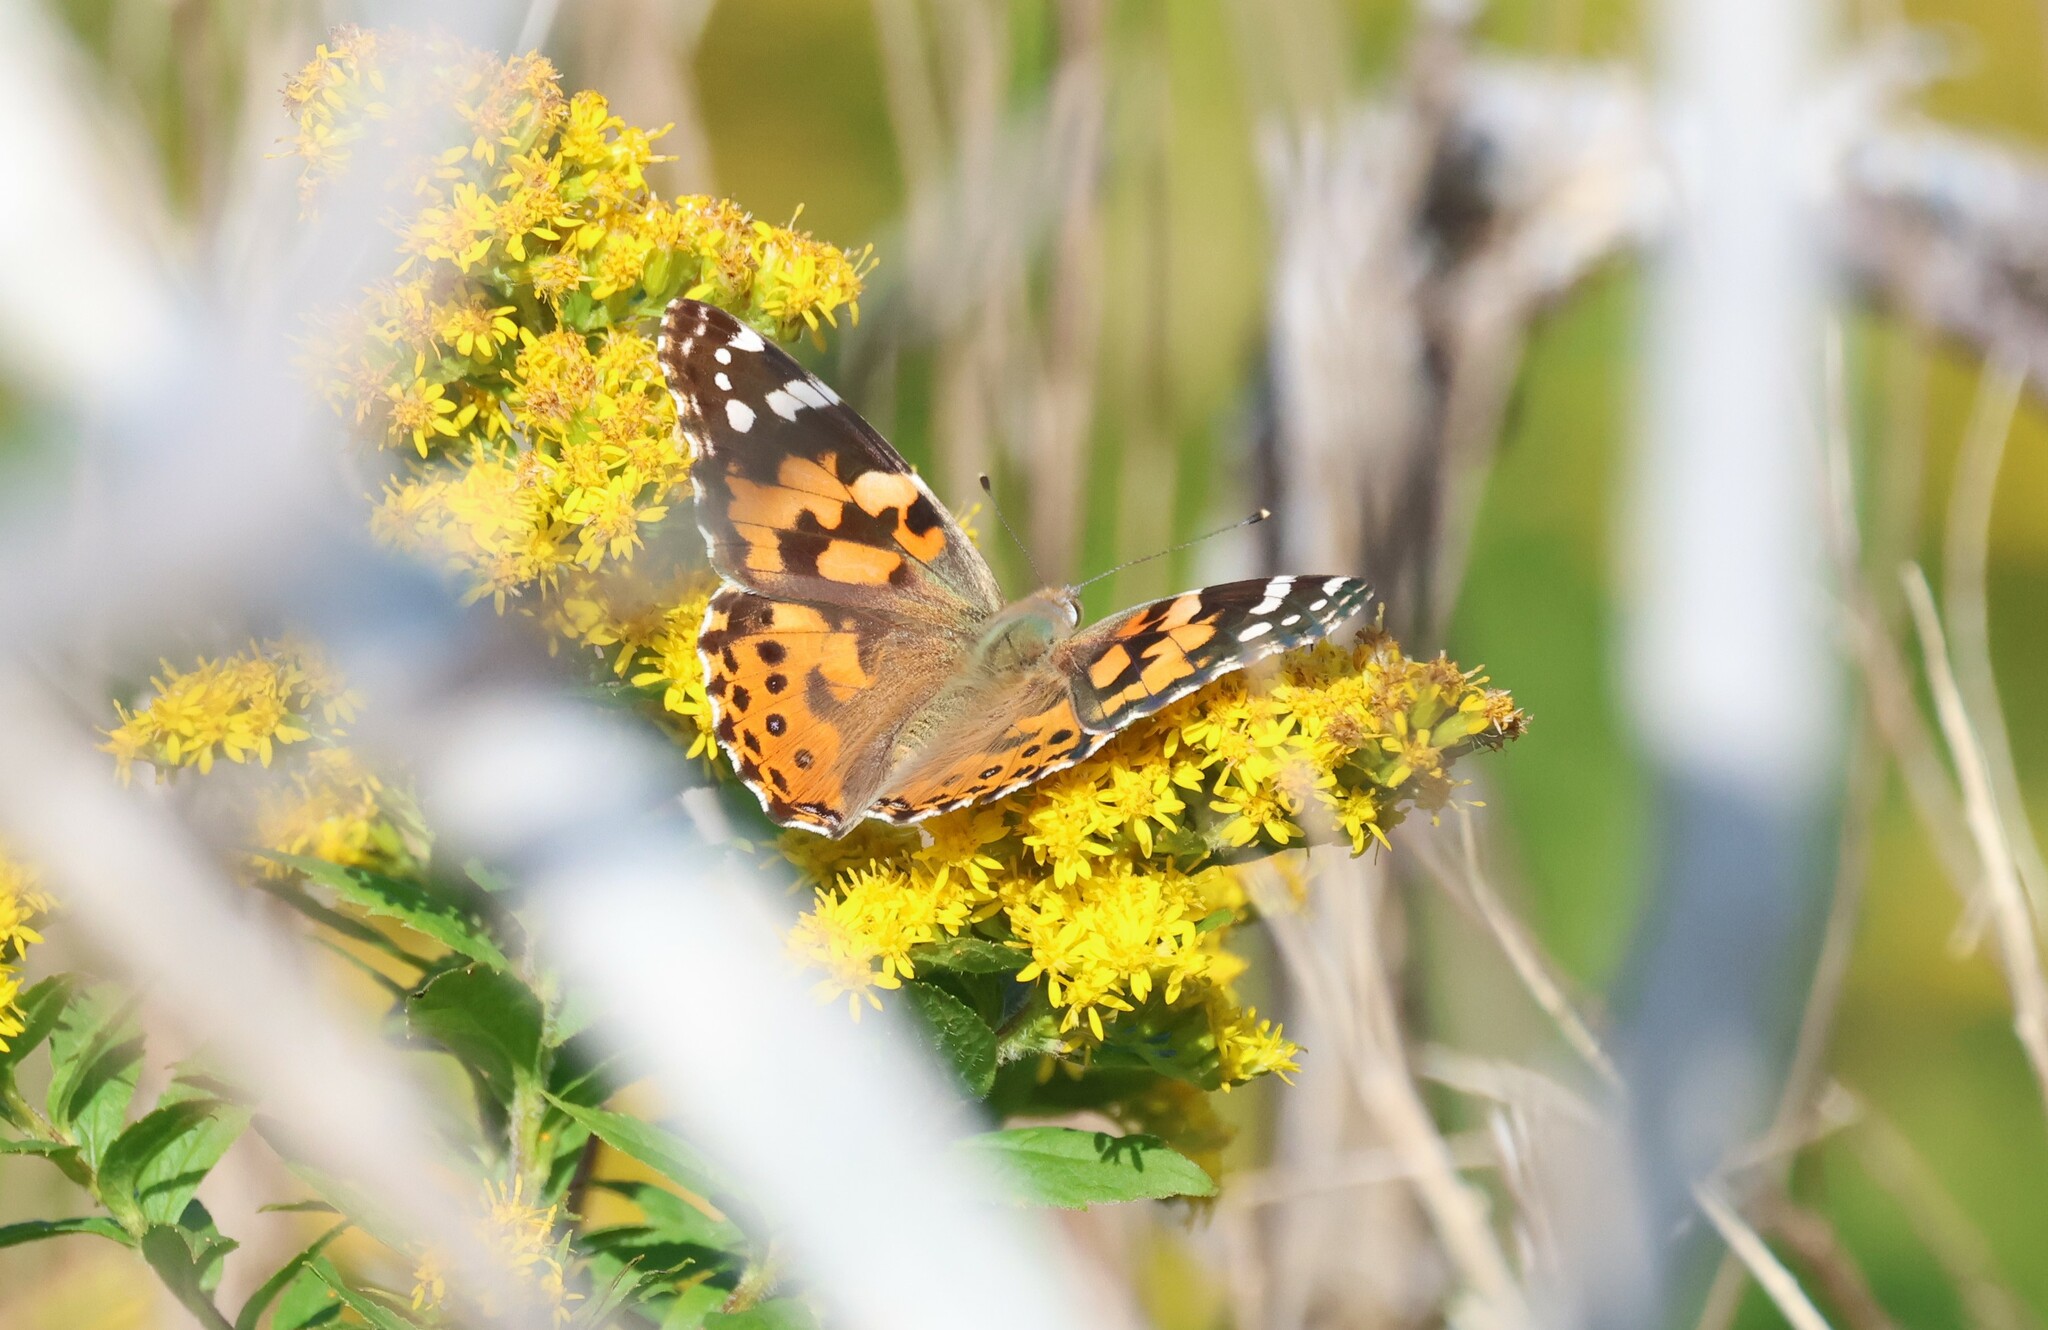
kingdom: Animalia
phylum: Arthropoda
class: Insecta
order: Lepidoptera
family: Nymphalidae
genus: Vanessa
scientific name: Vanessa cardui
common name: Painted lady
